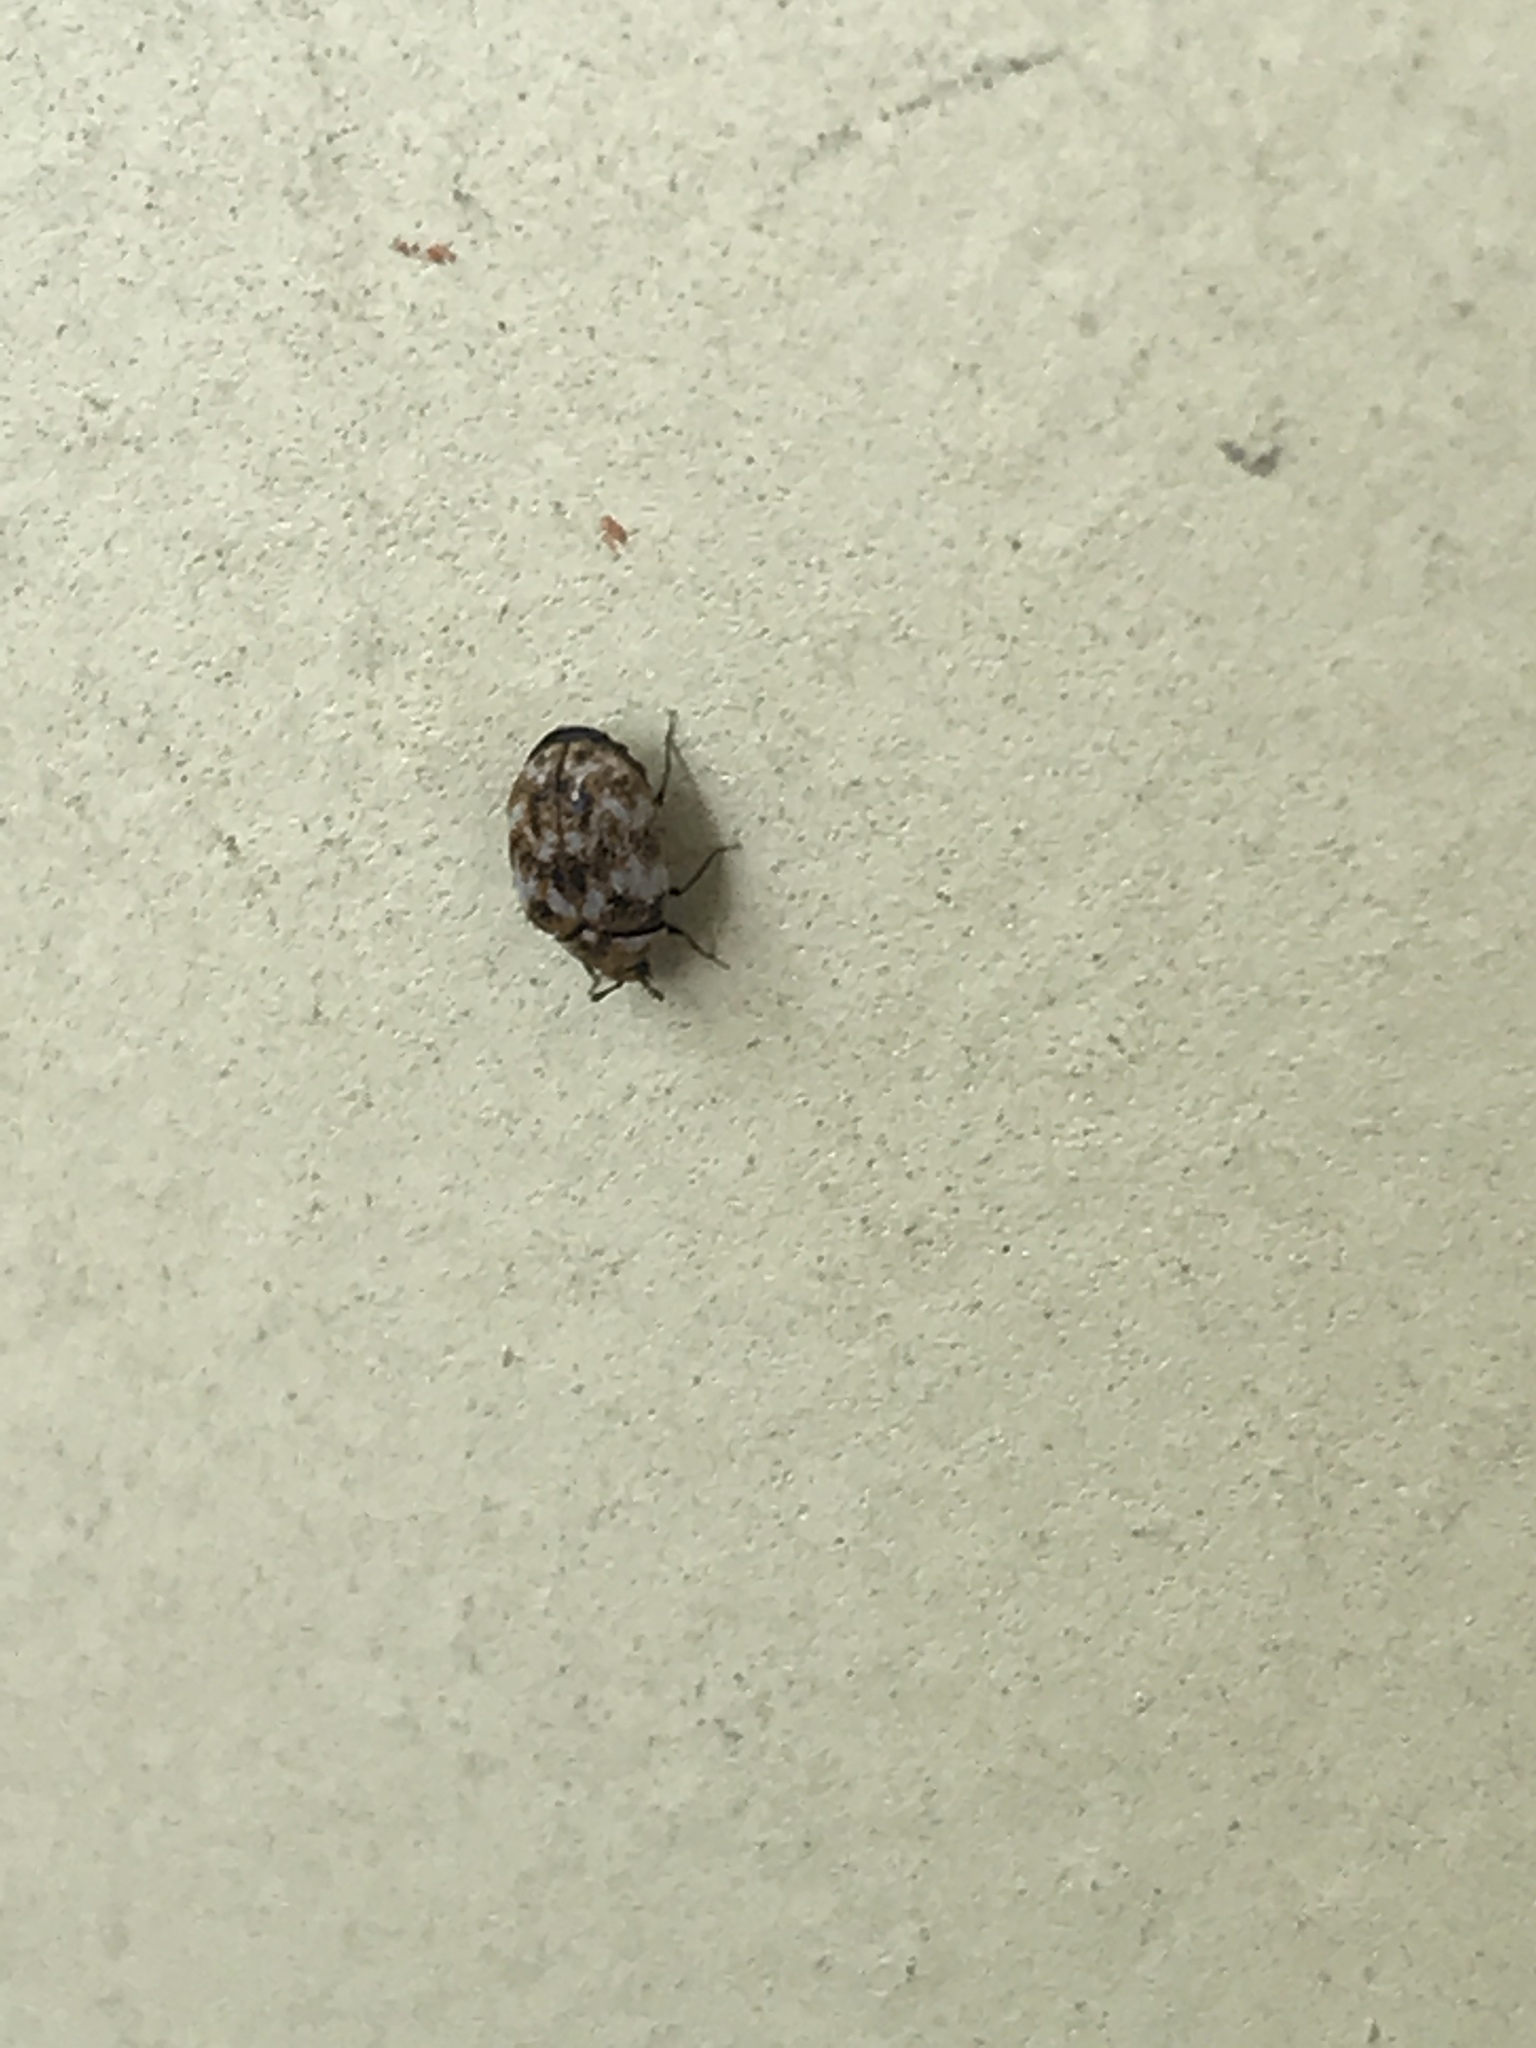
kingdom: Animalia
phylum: Arthropoda
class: Insecta
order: Coleoptera
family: Dermestidae
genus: Anthrenus
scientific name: Anthrenus verbasci
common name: Varied carpet beetle
